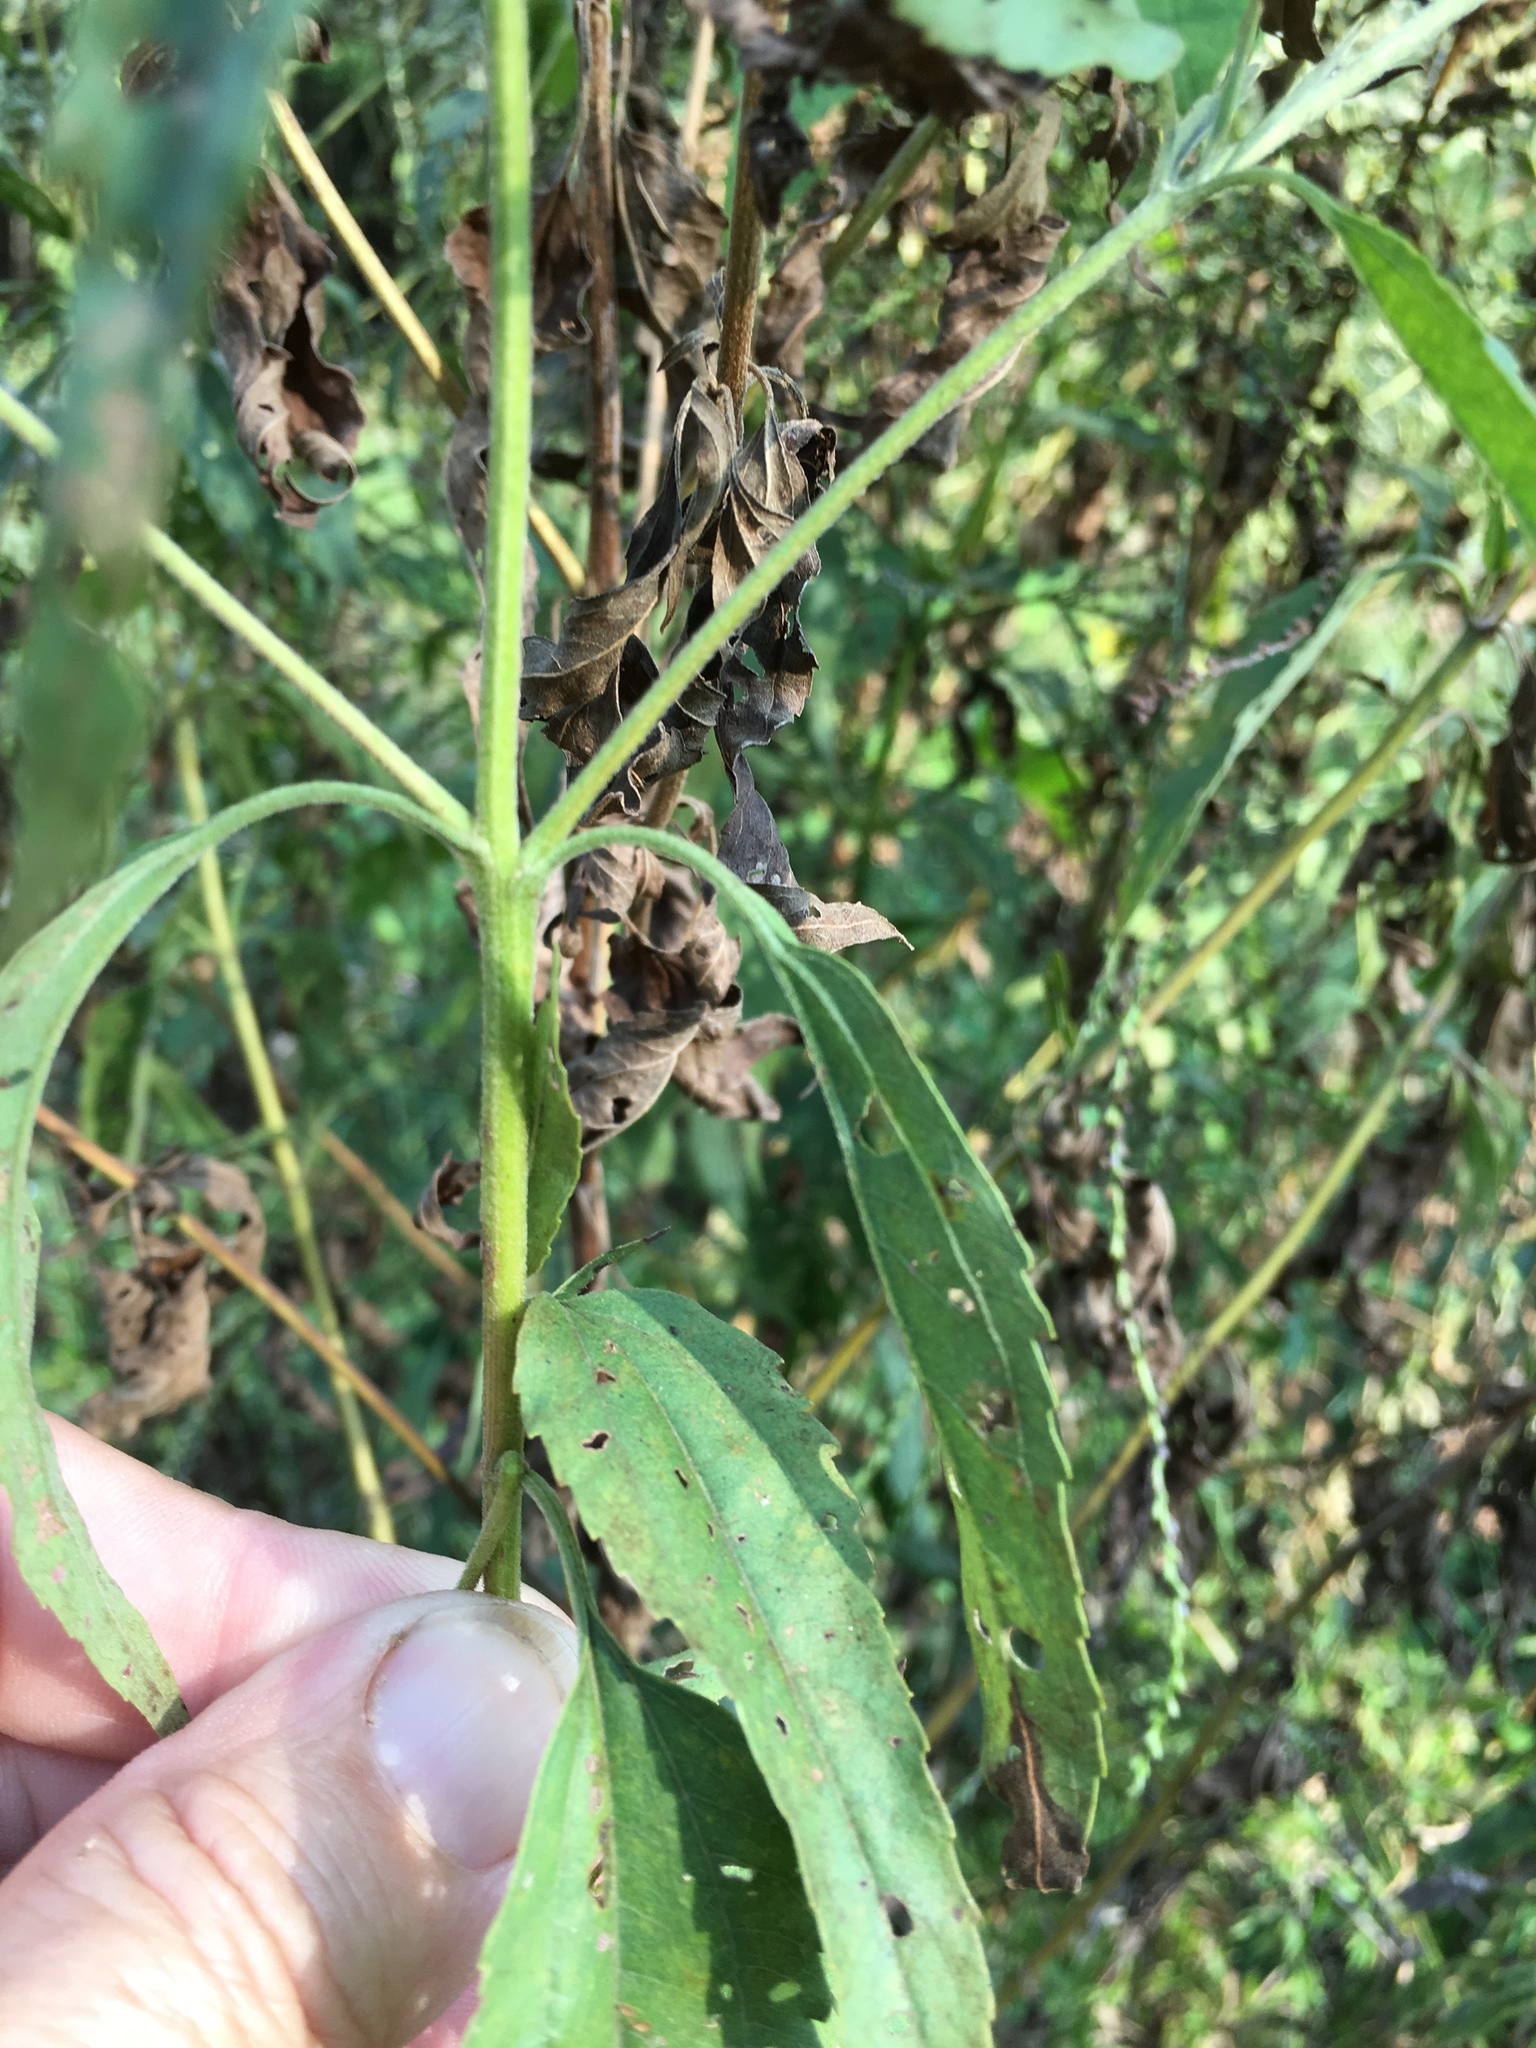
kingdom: Plantae
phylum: Tracheophyta
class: Magnoliopsida
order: Asterales
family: Asteraceae
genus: Eupatorium
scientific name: Eupatorium serotinum
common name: Late boneset
